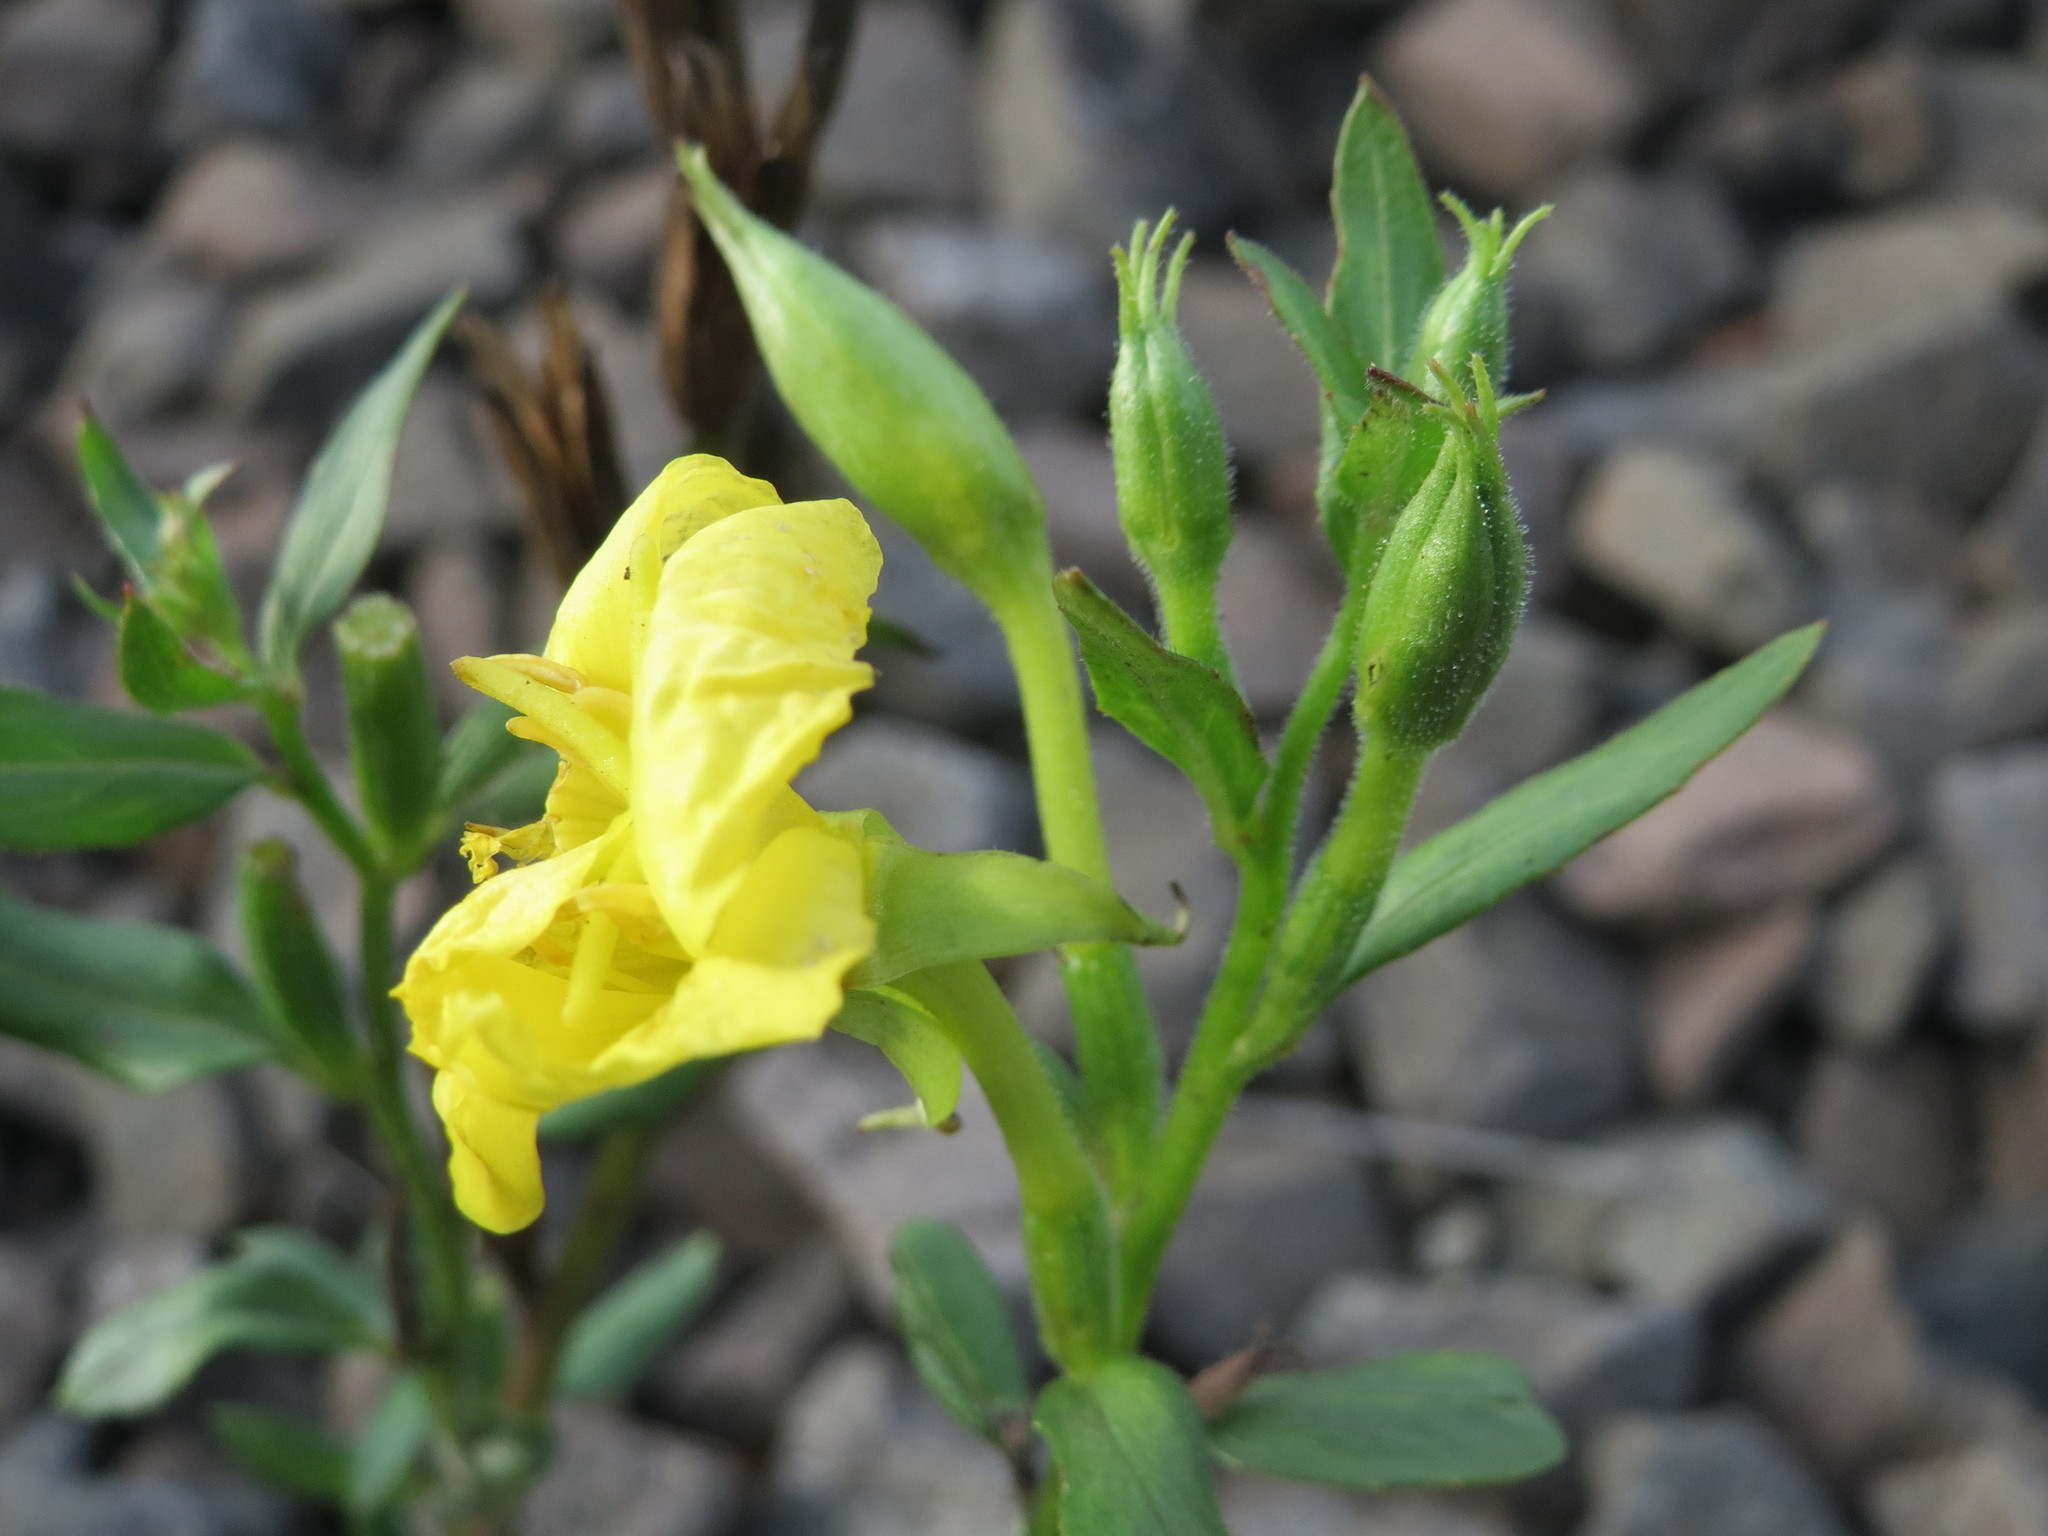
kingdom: Plantae
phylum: Tracheophyta
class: Magnoliopsida
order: Myrtales
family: Onagraceae
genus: Oenothera
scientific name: Oenothera biennis
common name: Common evening-primrose
